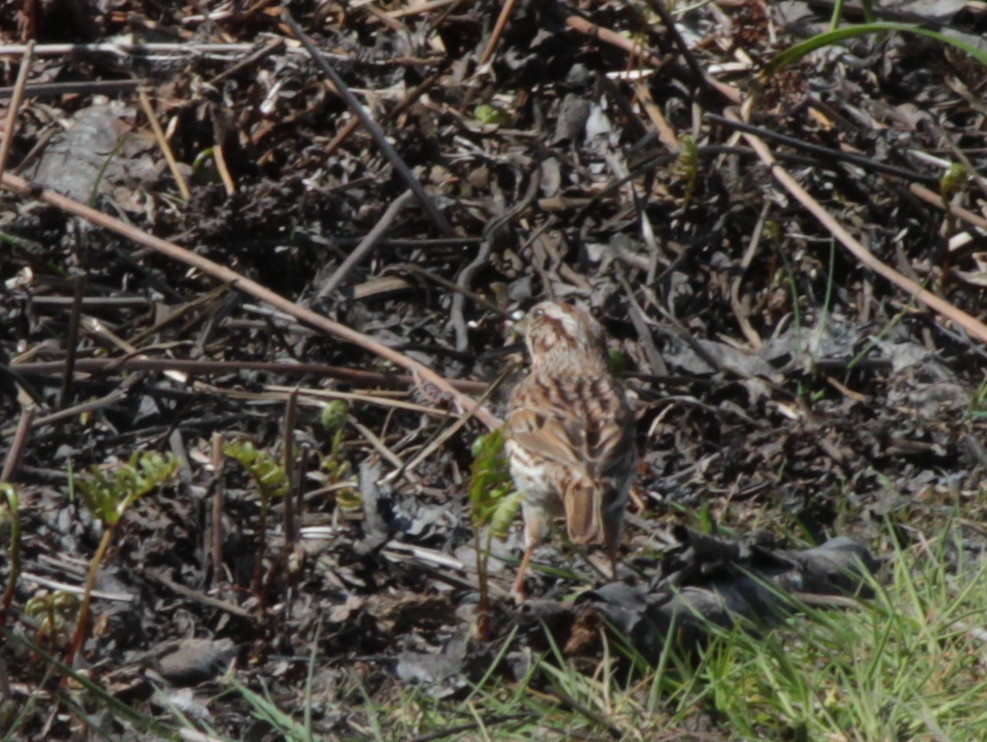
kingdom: Animalia
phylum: Chordata
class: Aves
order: Passeriformes
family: Passerellidae
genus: Melospiza
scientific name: Melospiza melodia
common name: Song sparrow
